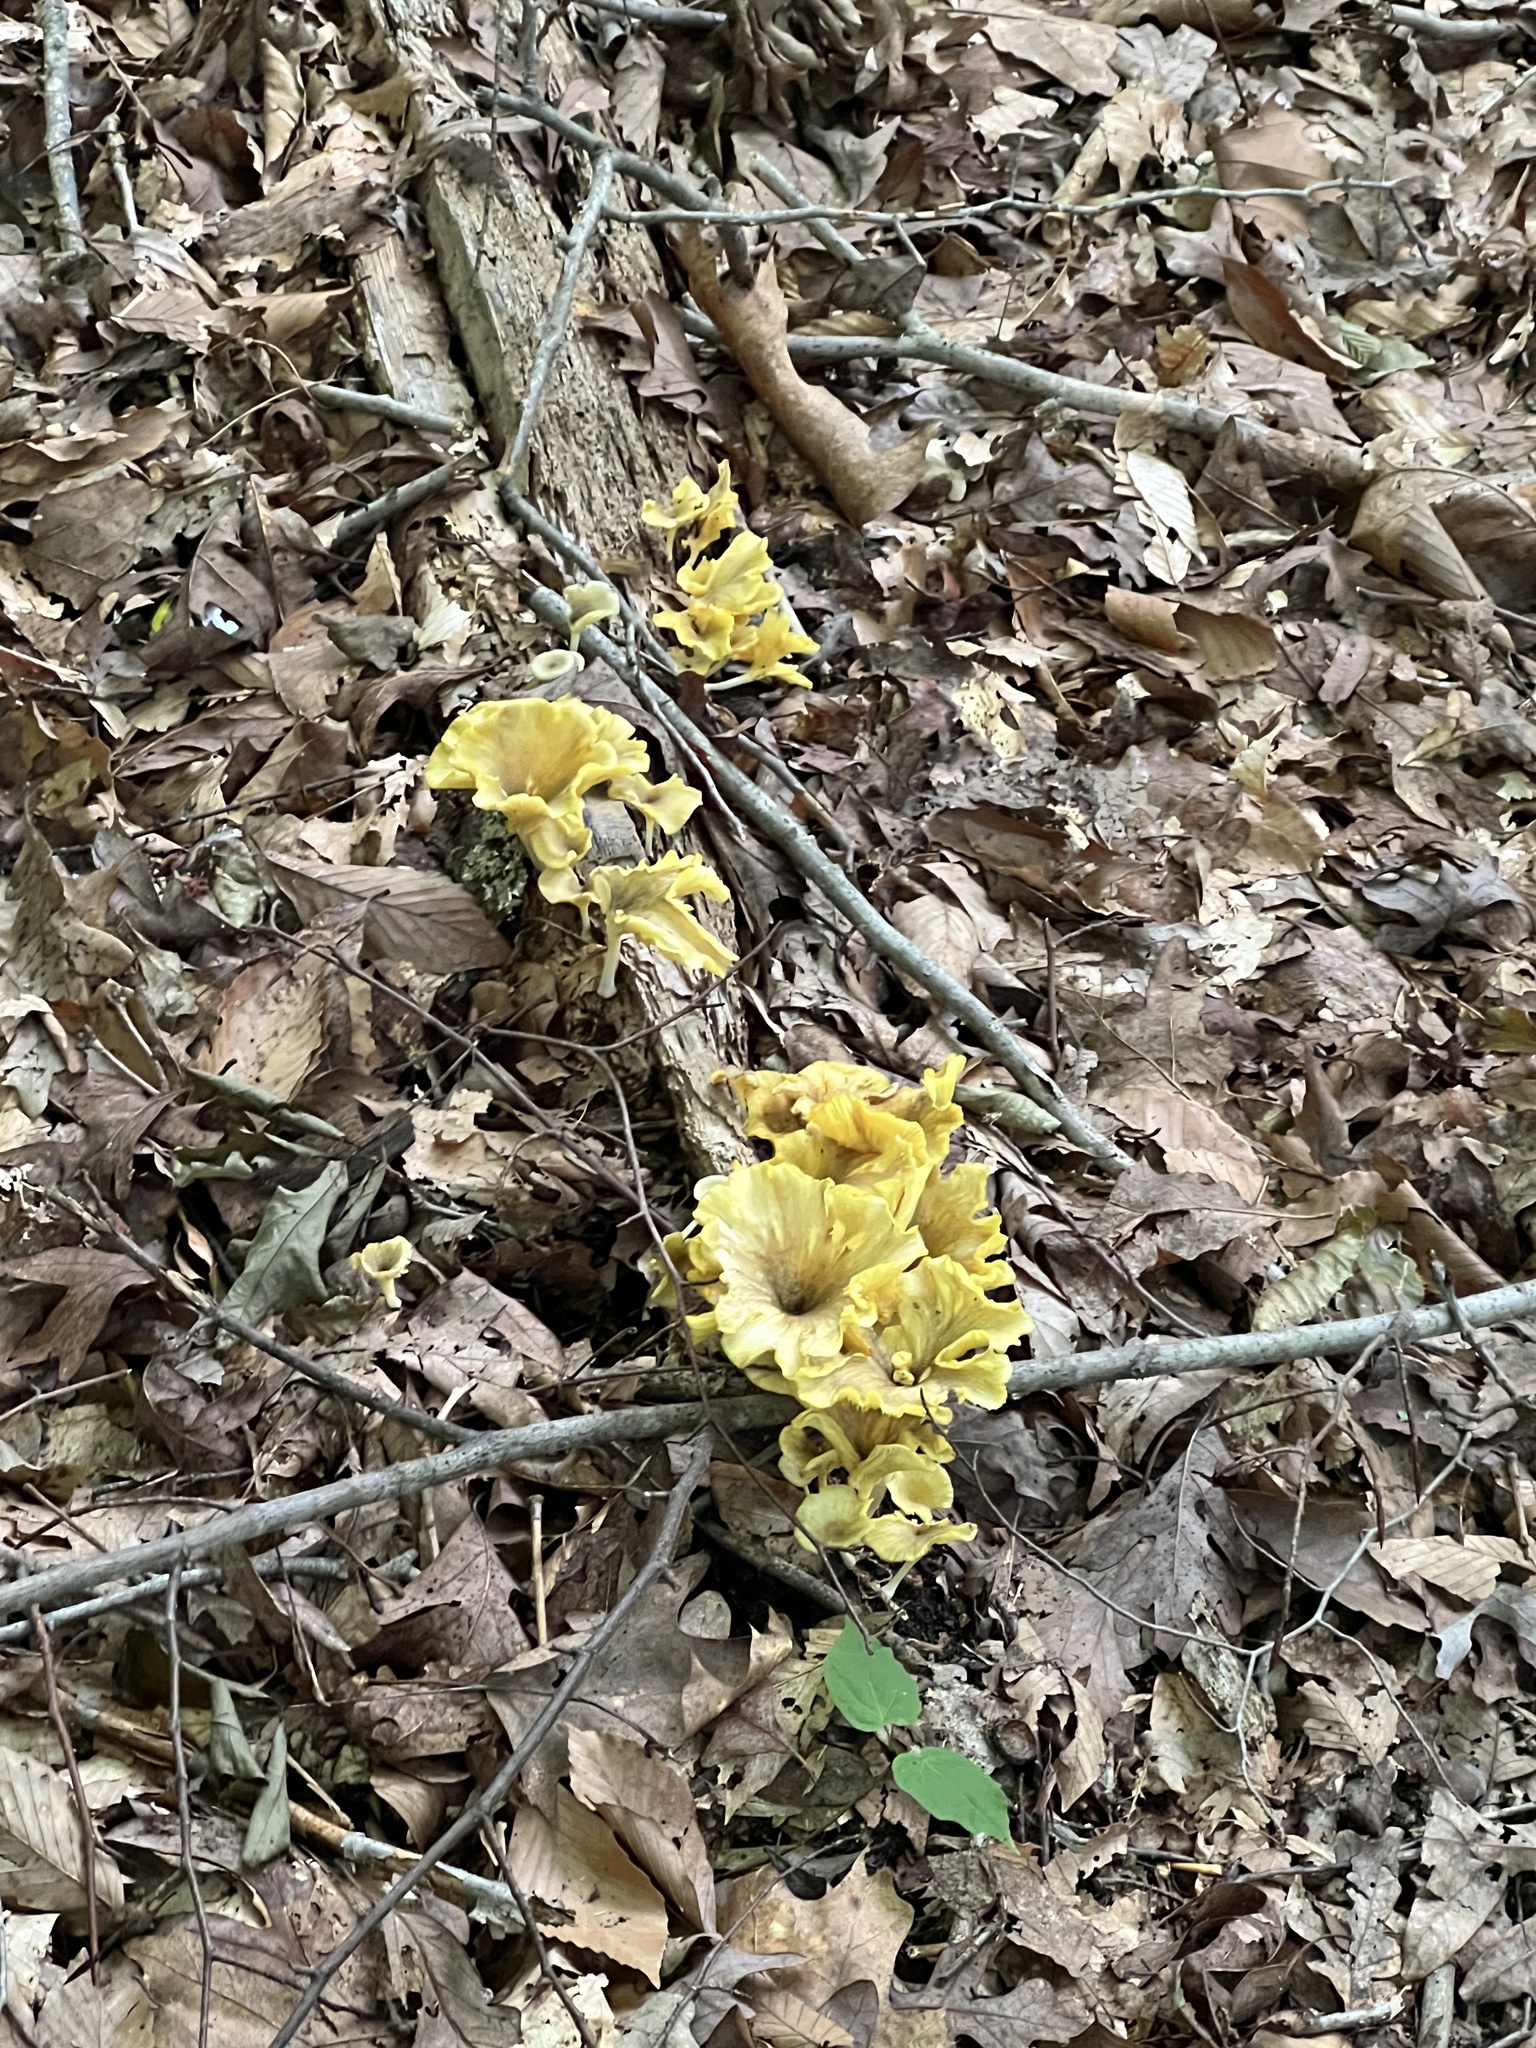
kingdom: Fungi
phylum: Basidiomycota
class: Agaricomycetes
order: Agaricales
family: Marasmiaceae
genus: Gerronema
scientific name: Gerronema strombodes
